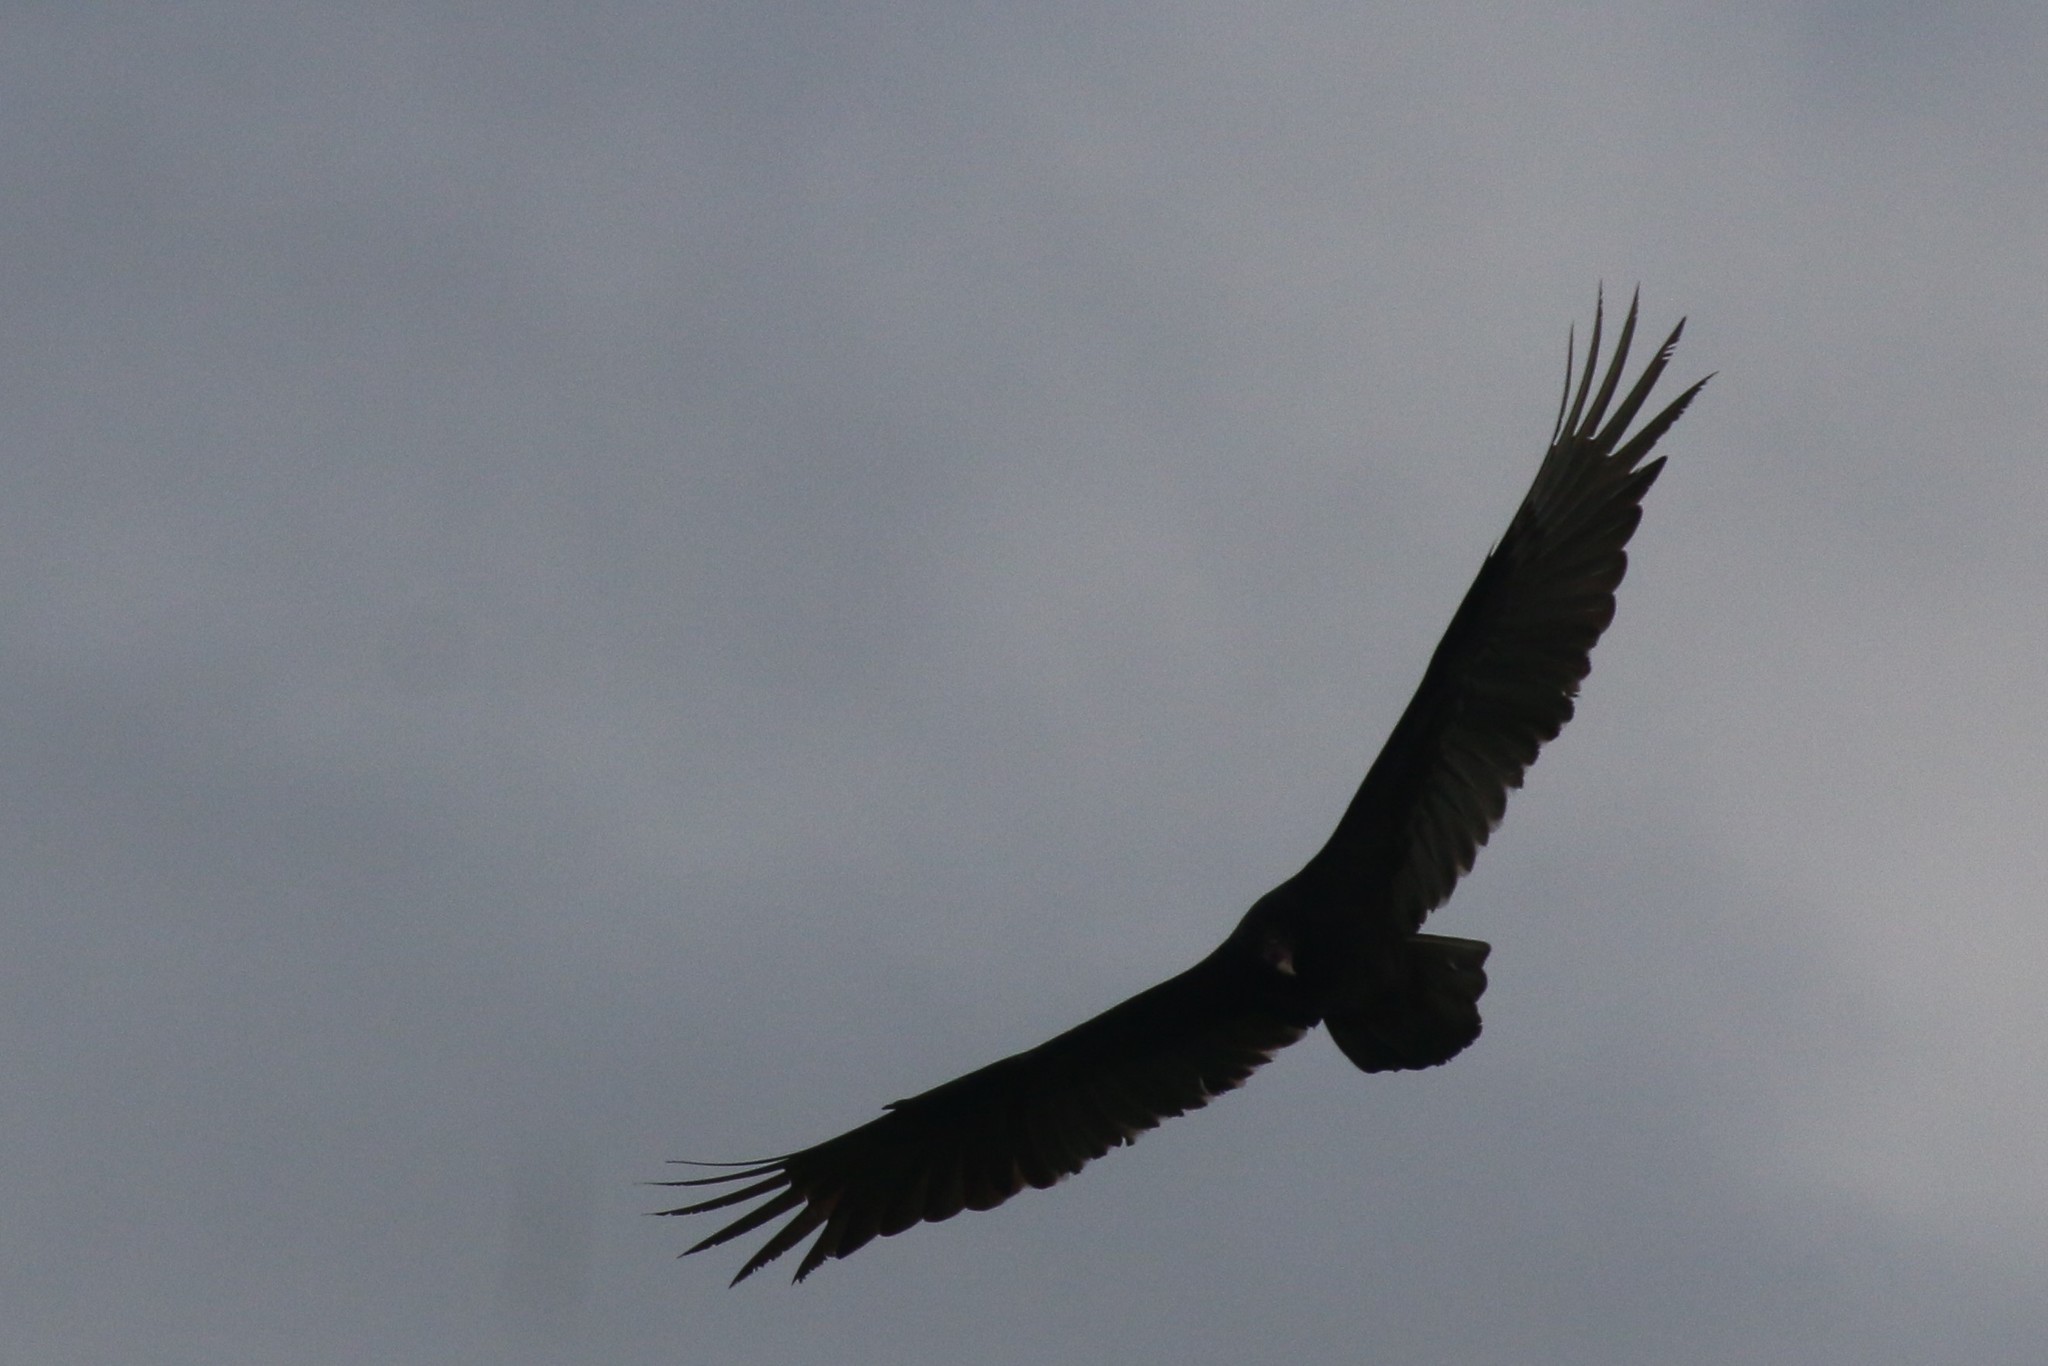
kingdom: Animalia
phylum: Chordata
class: Aves
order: Accipitriformes
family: Cathartidae
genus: Cathartes
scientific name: Cathartes aura
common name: Turkey vulture
